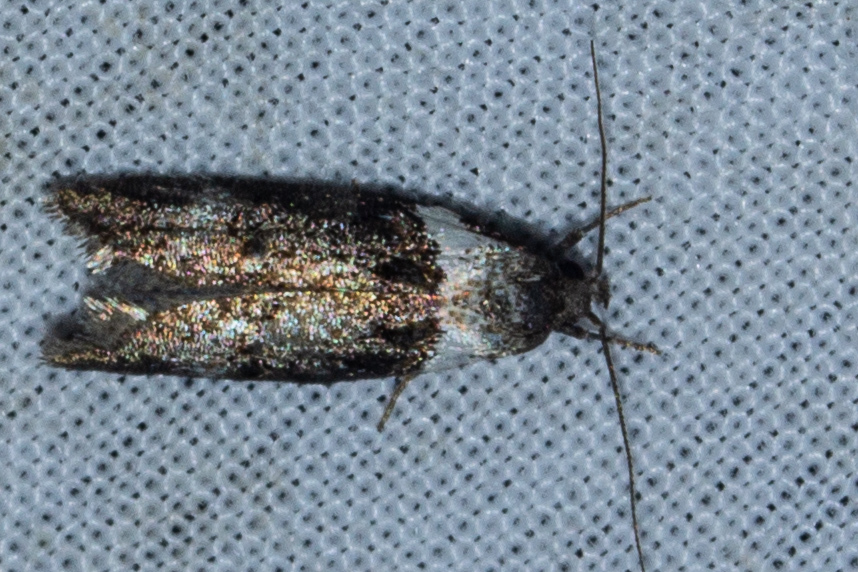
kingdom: Animalia
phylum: Arthropoda
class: Insecta
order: Lepidoptera
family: Oecophoridae
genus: Trachypepla
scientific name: Trachypepla conspicuella
